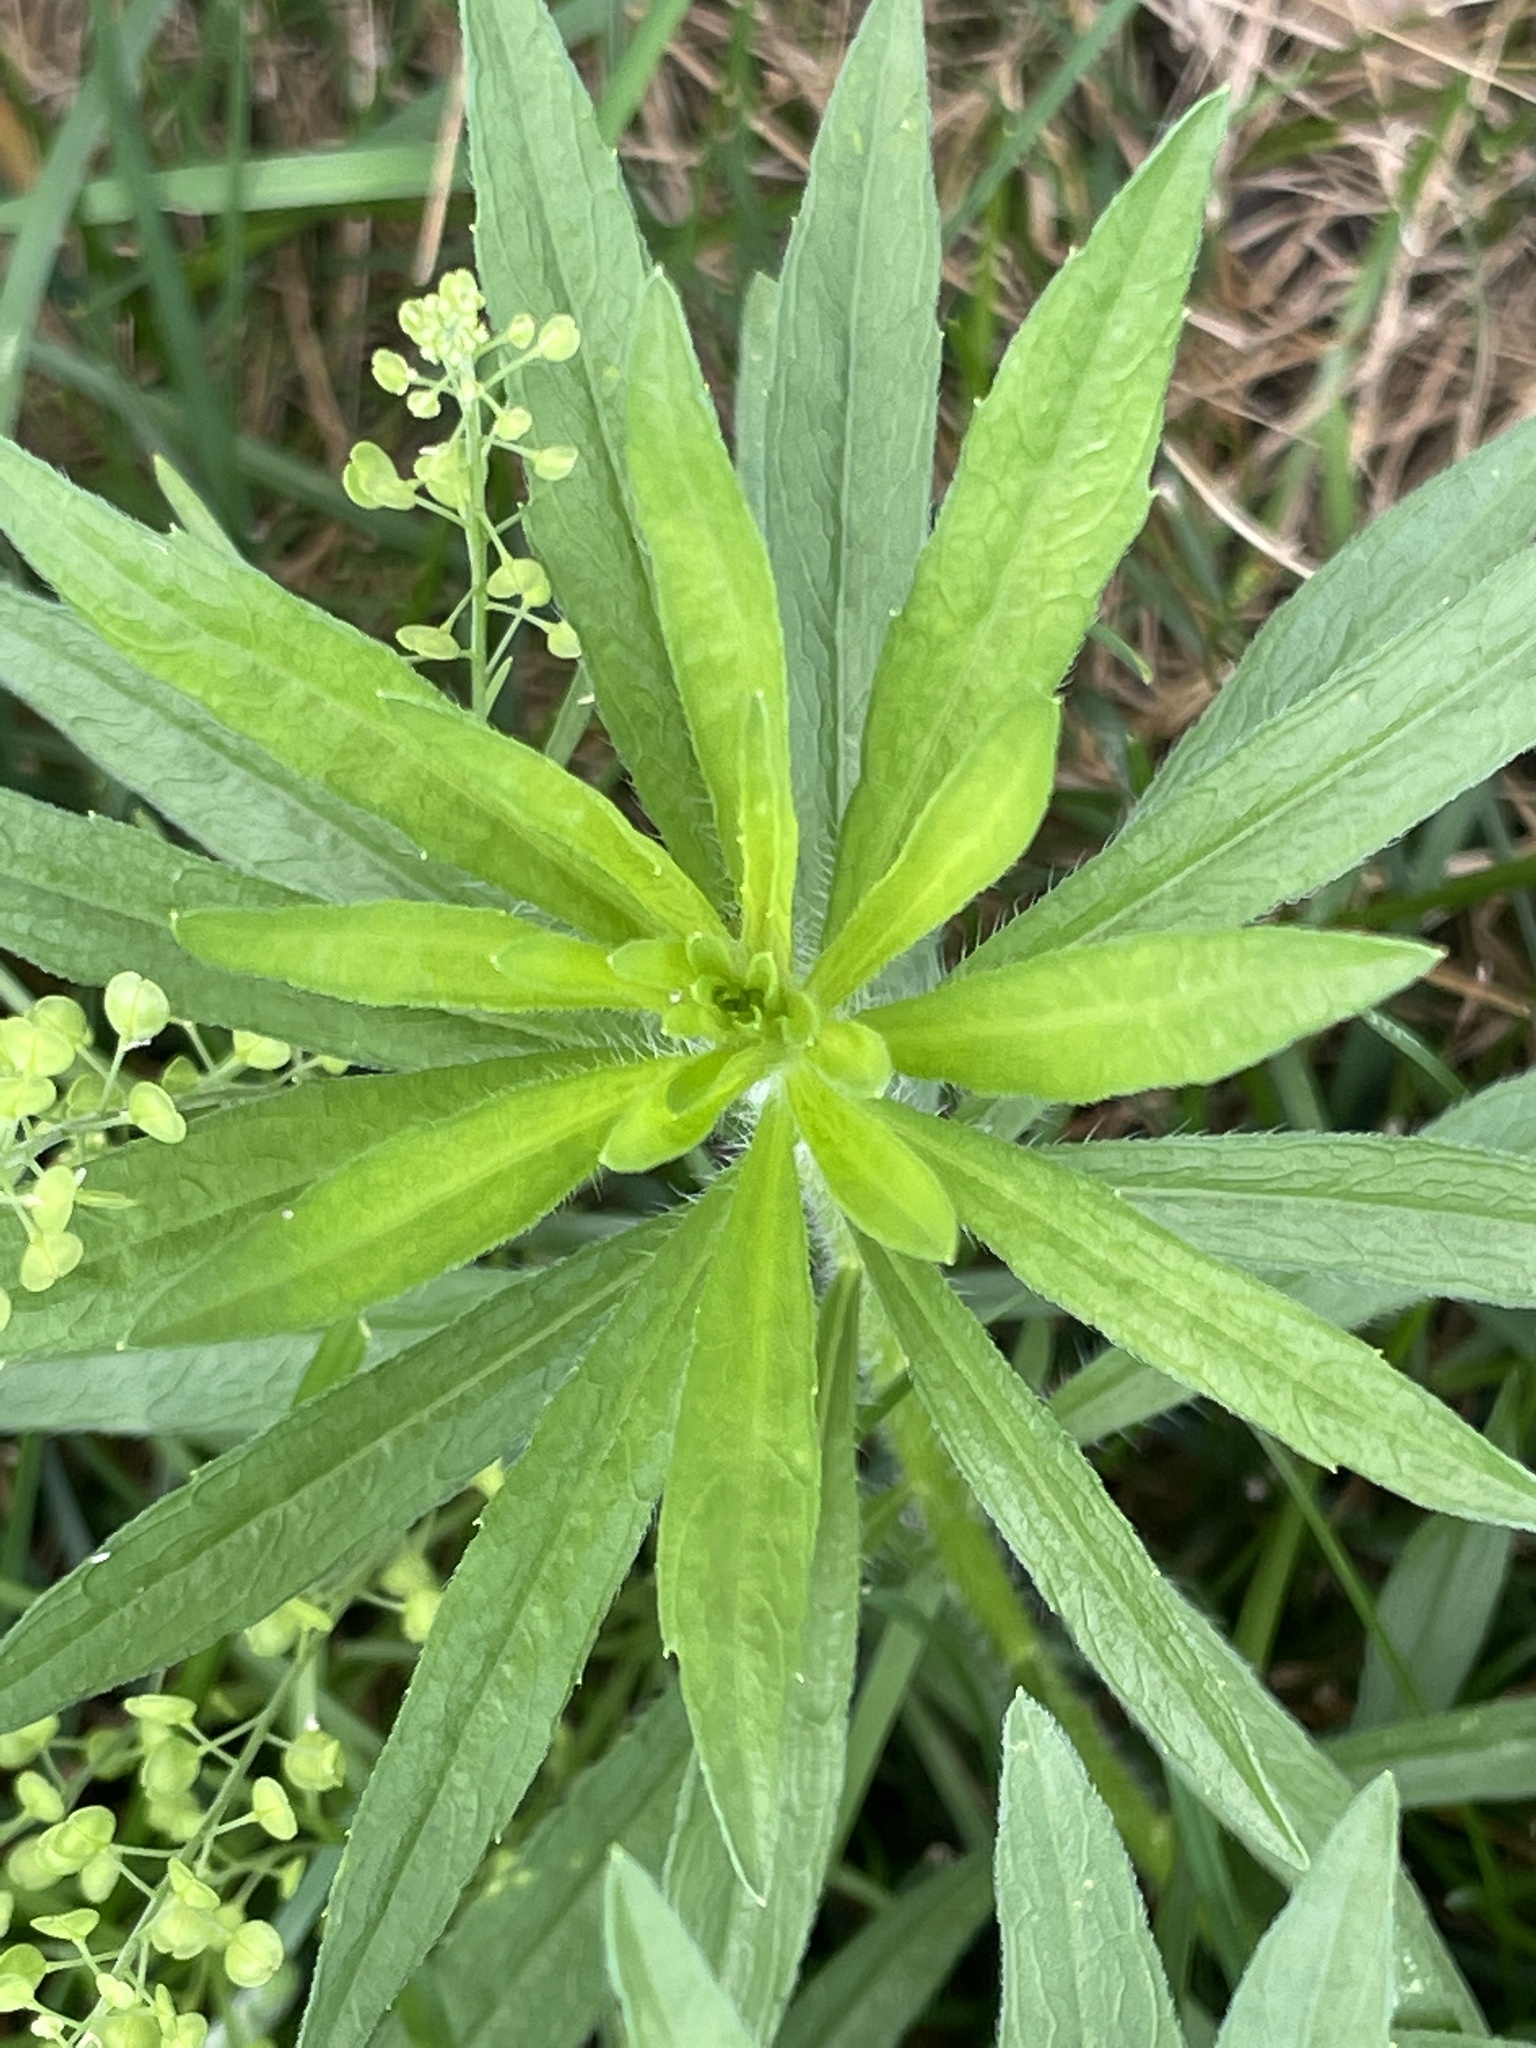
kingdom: Plantae
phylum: Tracheophyta
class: Magnoliopsida
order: Asterales
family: Asteraceae
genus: Erigeron
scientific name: Erigeron canadensis
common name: Canadian fleabane
